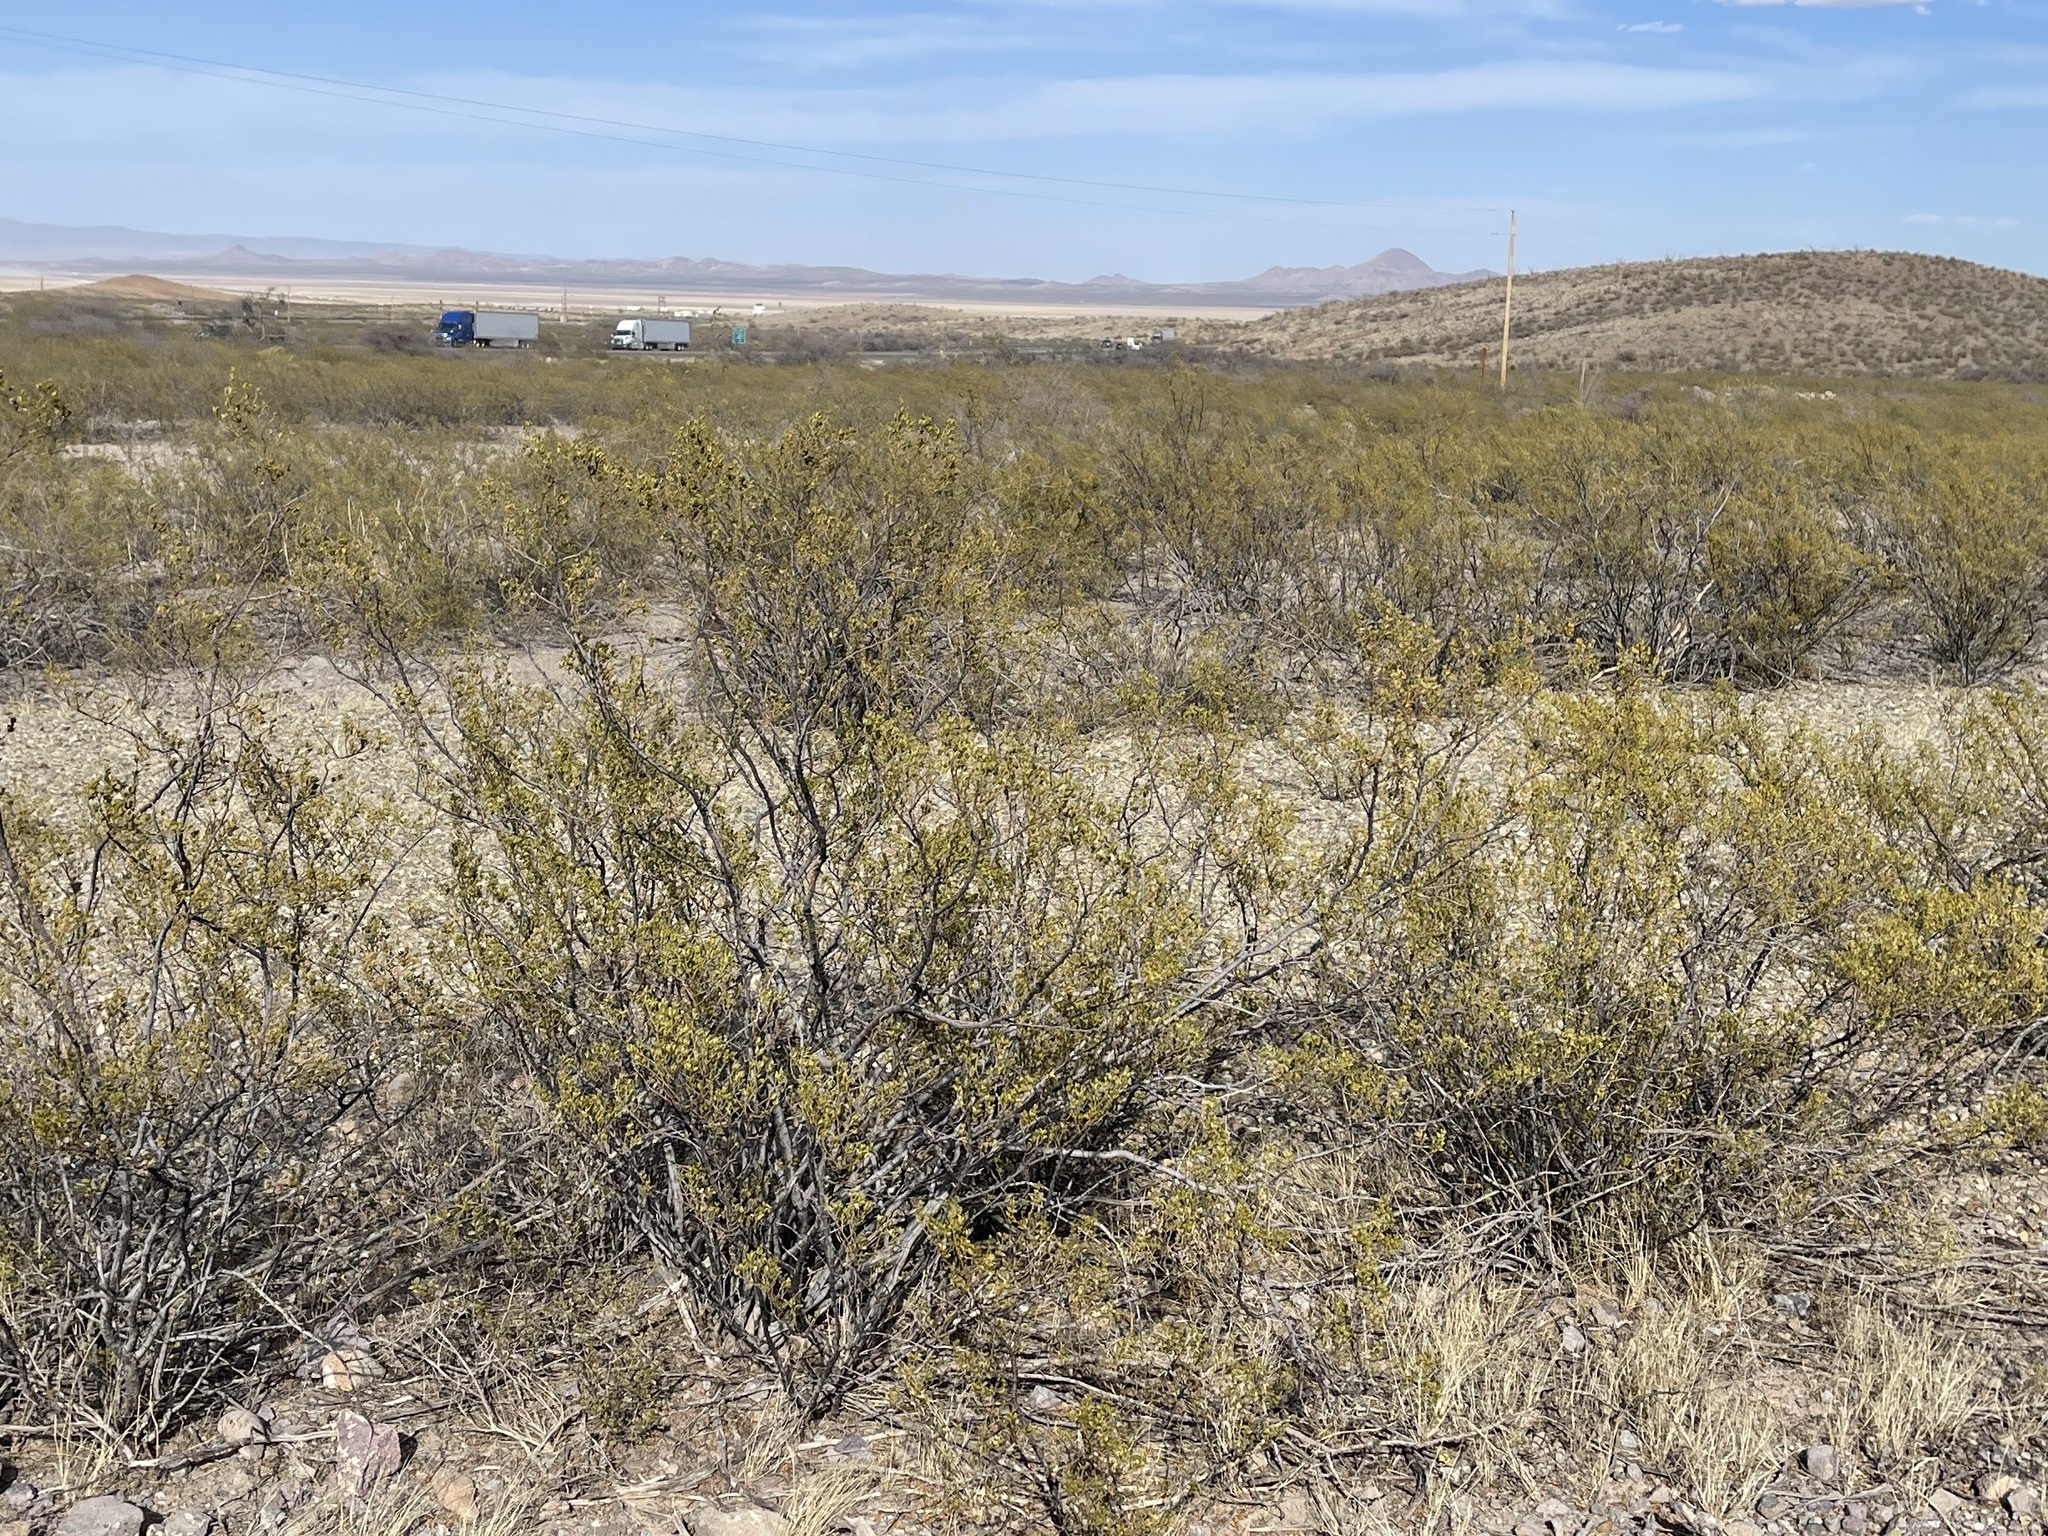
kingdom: Plantae
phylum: Tracheophyta
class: Magnoliopsida
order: Zygophyllales
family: Zygophyllaceae
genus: Larrea
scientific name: Larrea tridentata
